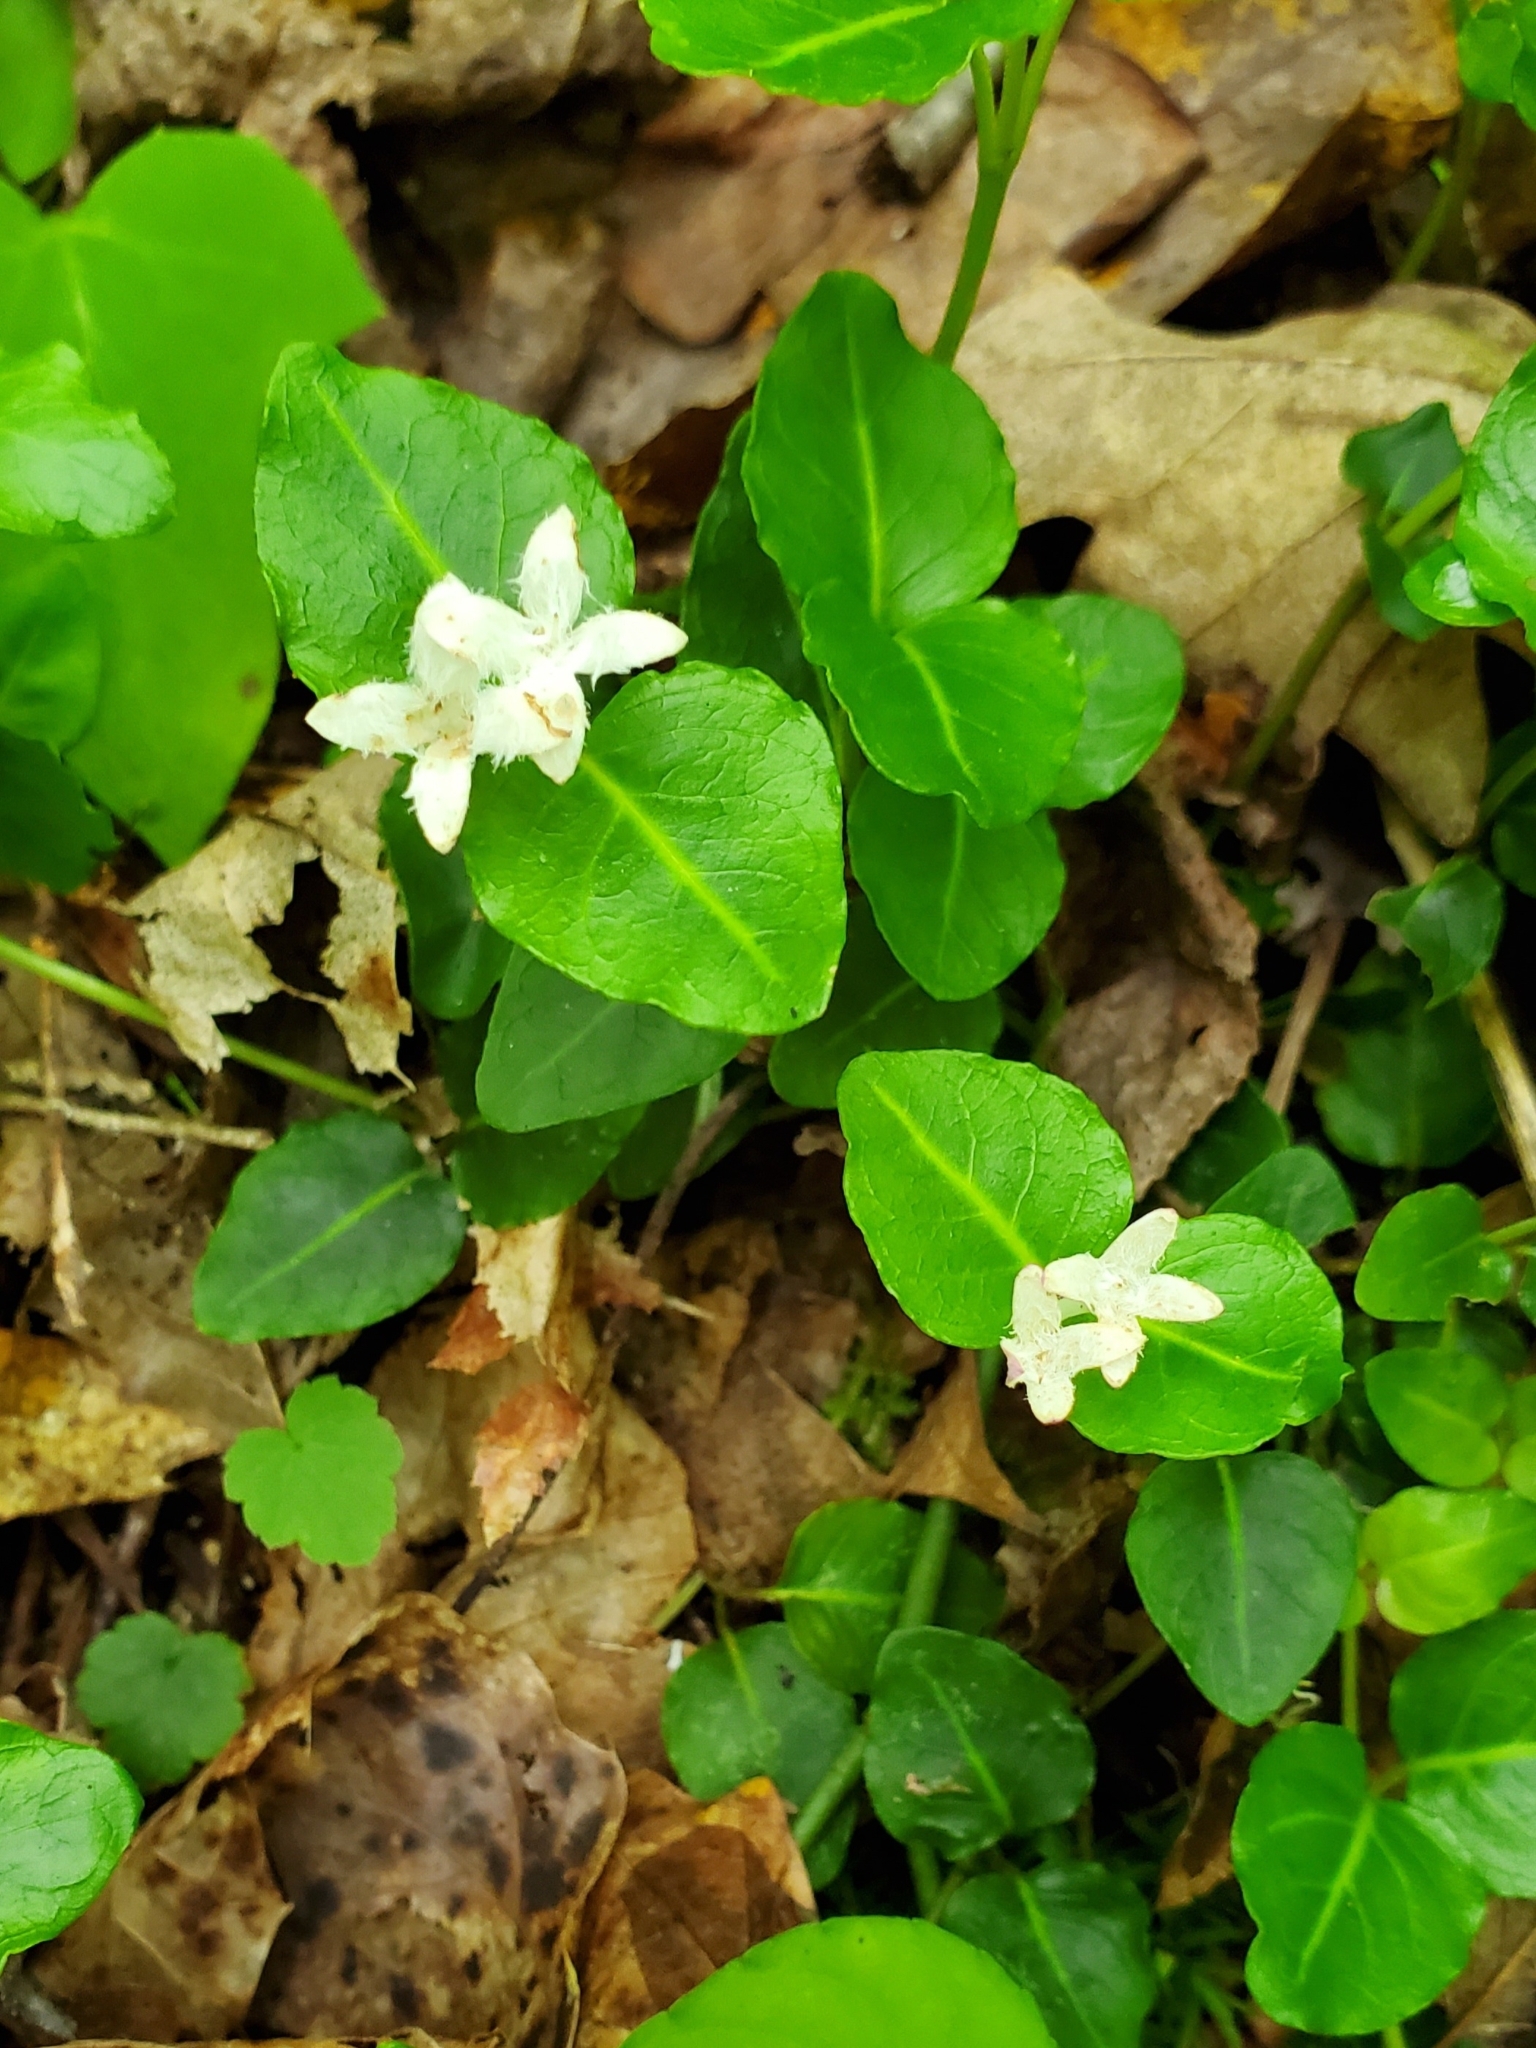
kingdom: Plantae
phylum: Tracheophyta
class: Magnoliopsida
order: Gentianales
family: Rubiaceae
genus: Mitchella
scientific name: Mitchella repens
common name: Partridge-berry
